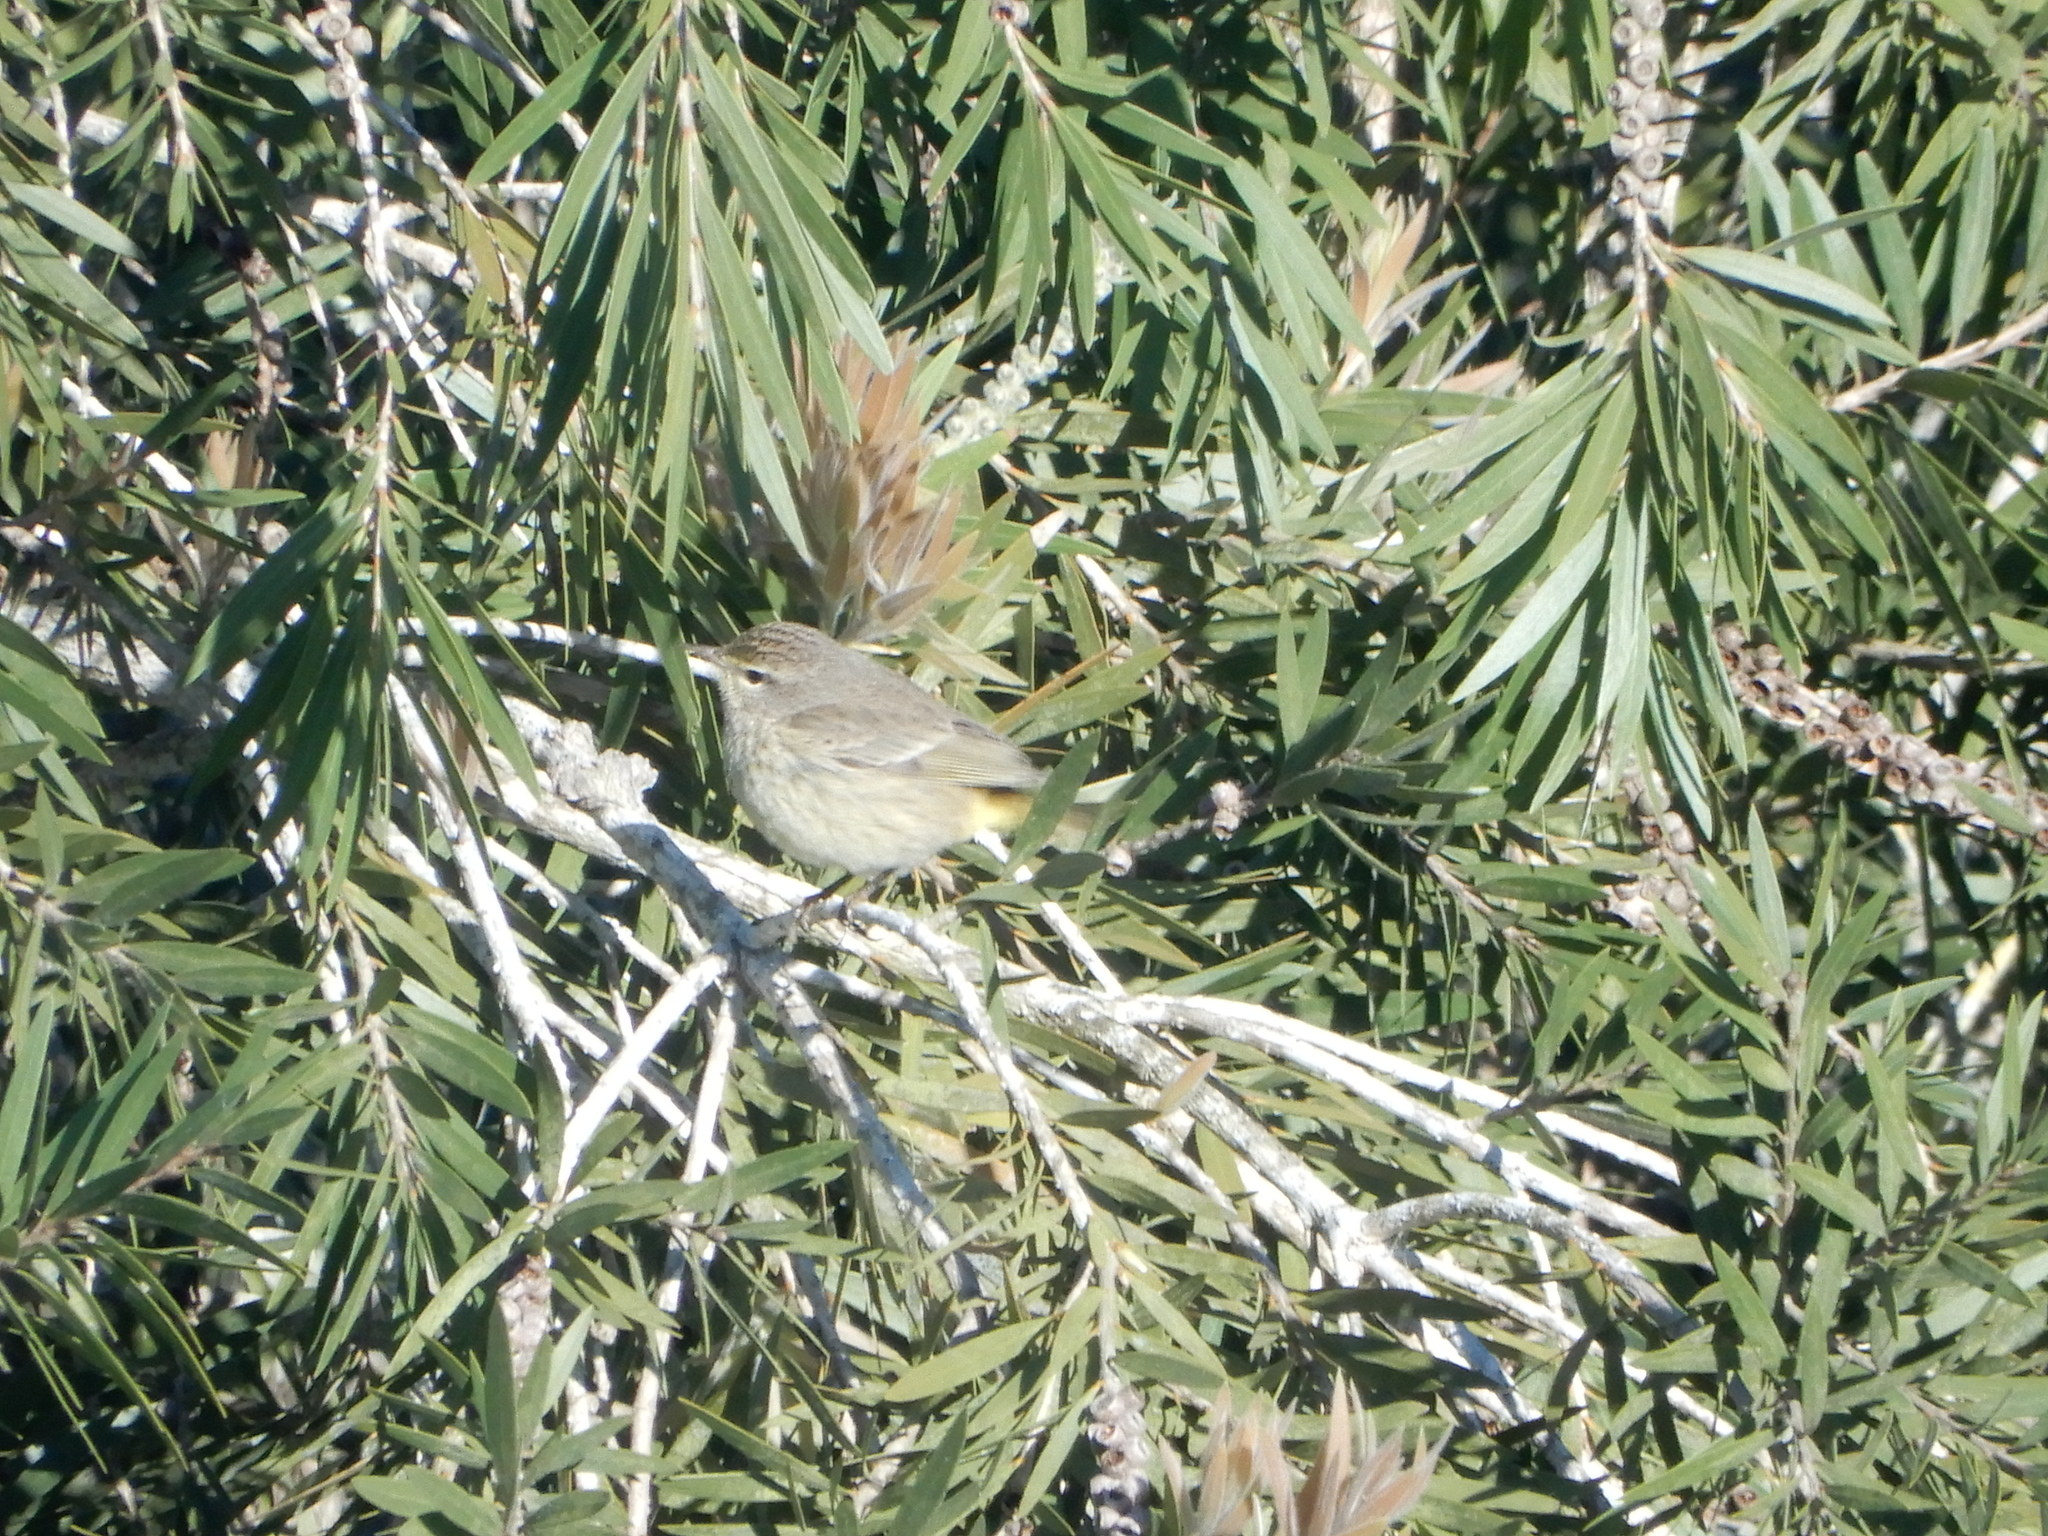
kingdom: Animalia
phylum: Chordata
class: Aves
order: Passeriformes
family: Parulidae
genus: Setophaga
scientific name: Setophaga palmarum
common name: Palm warbler
